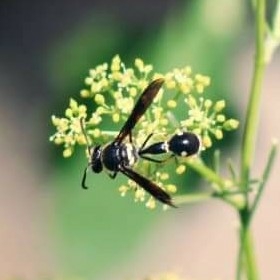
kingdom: Animalia
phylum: Arthropoda
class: Insecta
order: Hymenoptera
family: Vespidae
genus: Eumenes
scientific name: Eumenes fraternus
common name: Fraternal potter wasp
